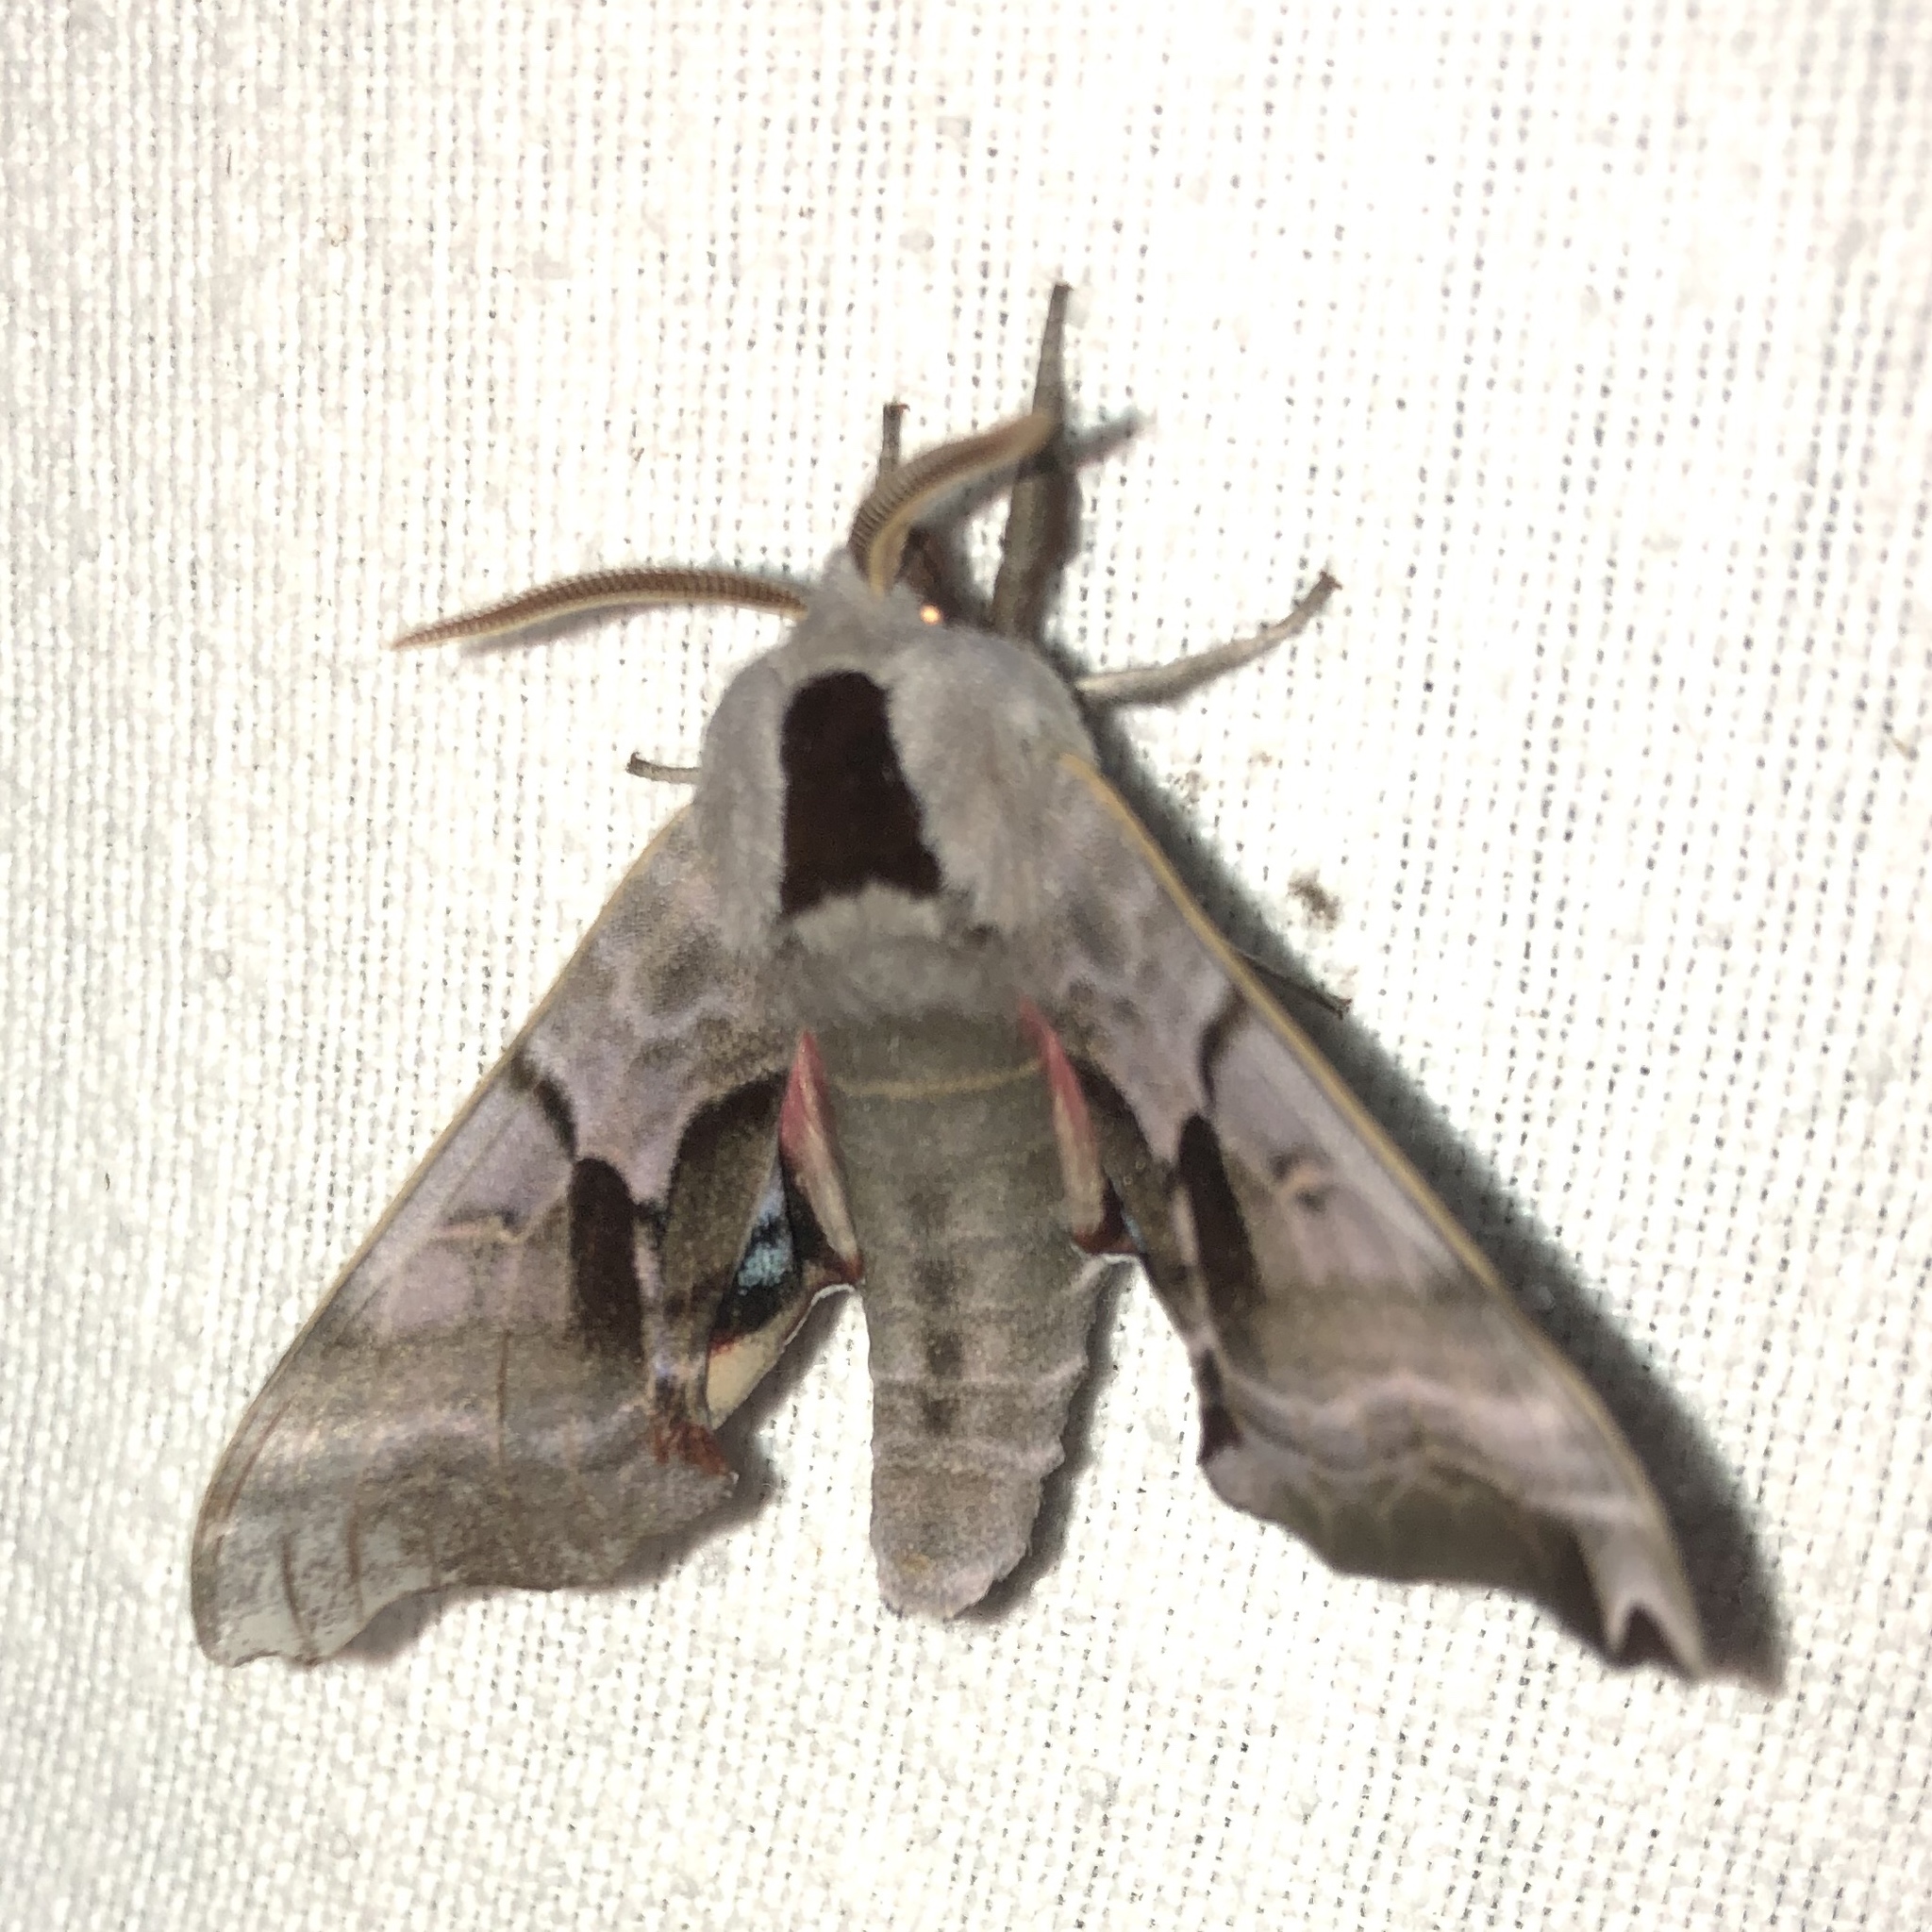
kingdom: Animalia
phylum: Arthropoda
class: Insecta
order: Lepidoptera
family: Sphingidae
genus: Smerinthus
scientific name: Smerinthus jamaicensis
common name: Twin spotted sphinx
